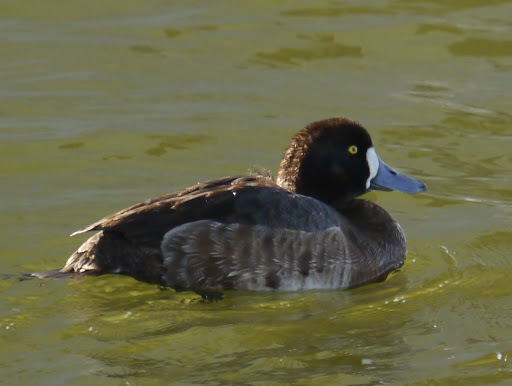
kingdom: Animalia
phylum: Chordata
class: Aves
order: Anseriformes
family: Anatidae
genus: Aythya
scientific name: Aythya marila
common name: Greater scaup
